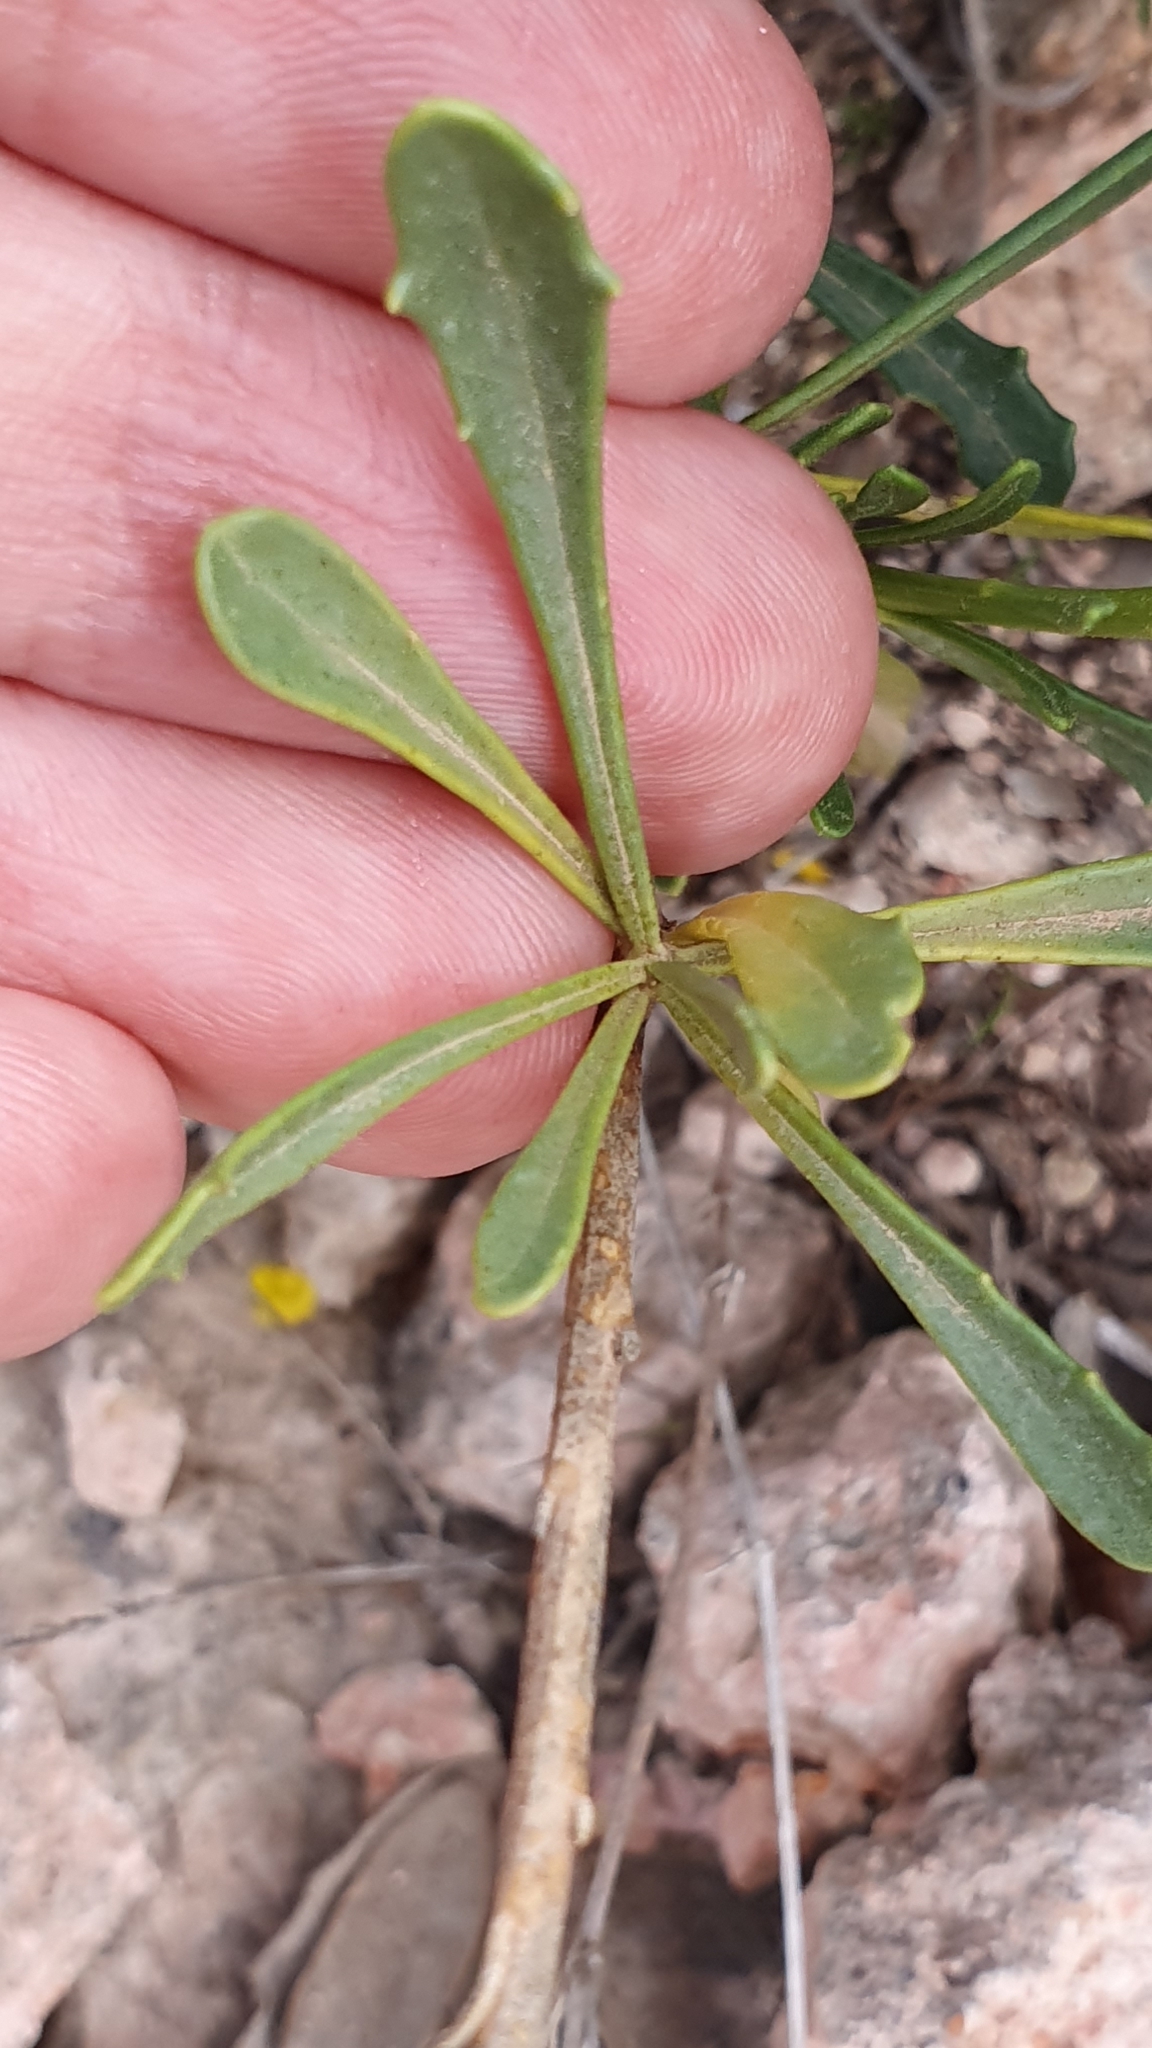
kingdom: Plantae
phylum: Tracheophyta
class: Magnoliopsida
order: Lamiales
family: Plantaginaceae
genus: Anarrhinum
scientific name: Anarrhinum pedatum
